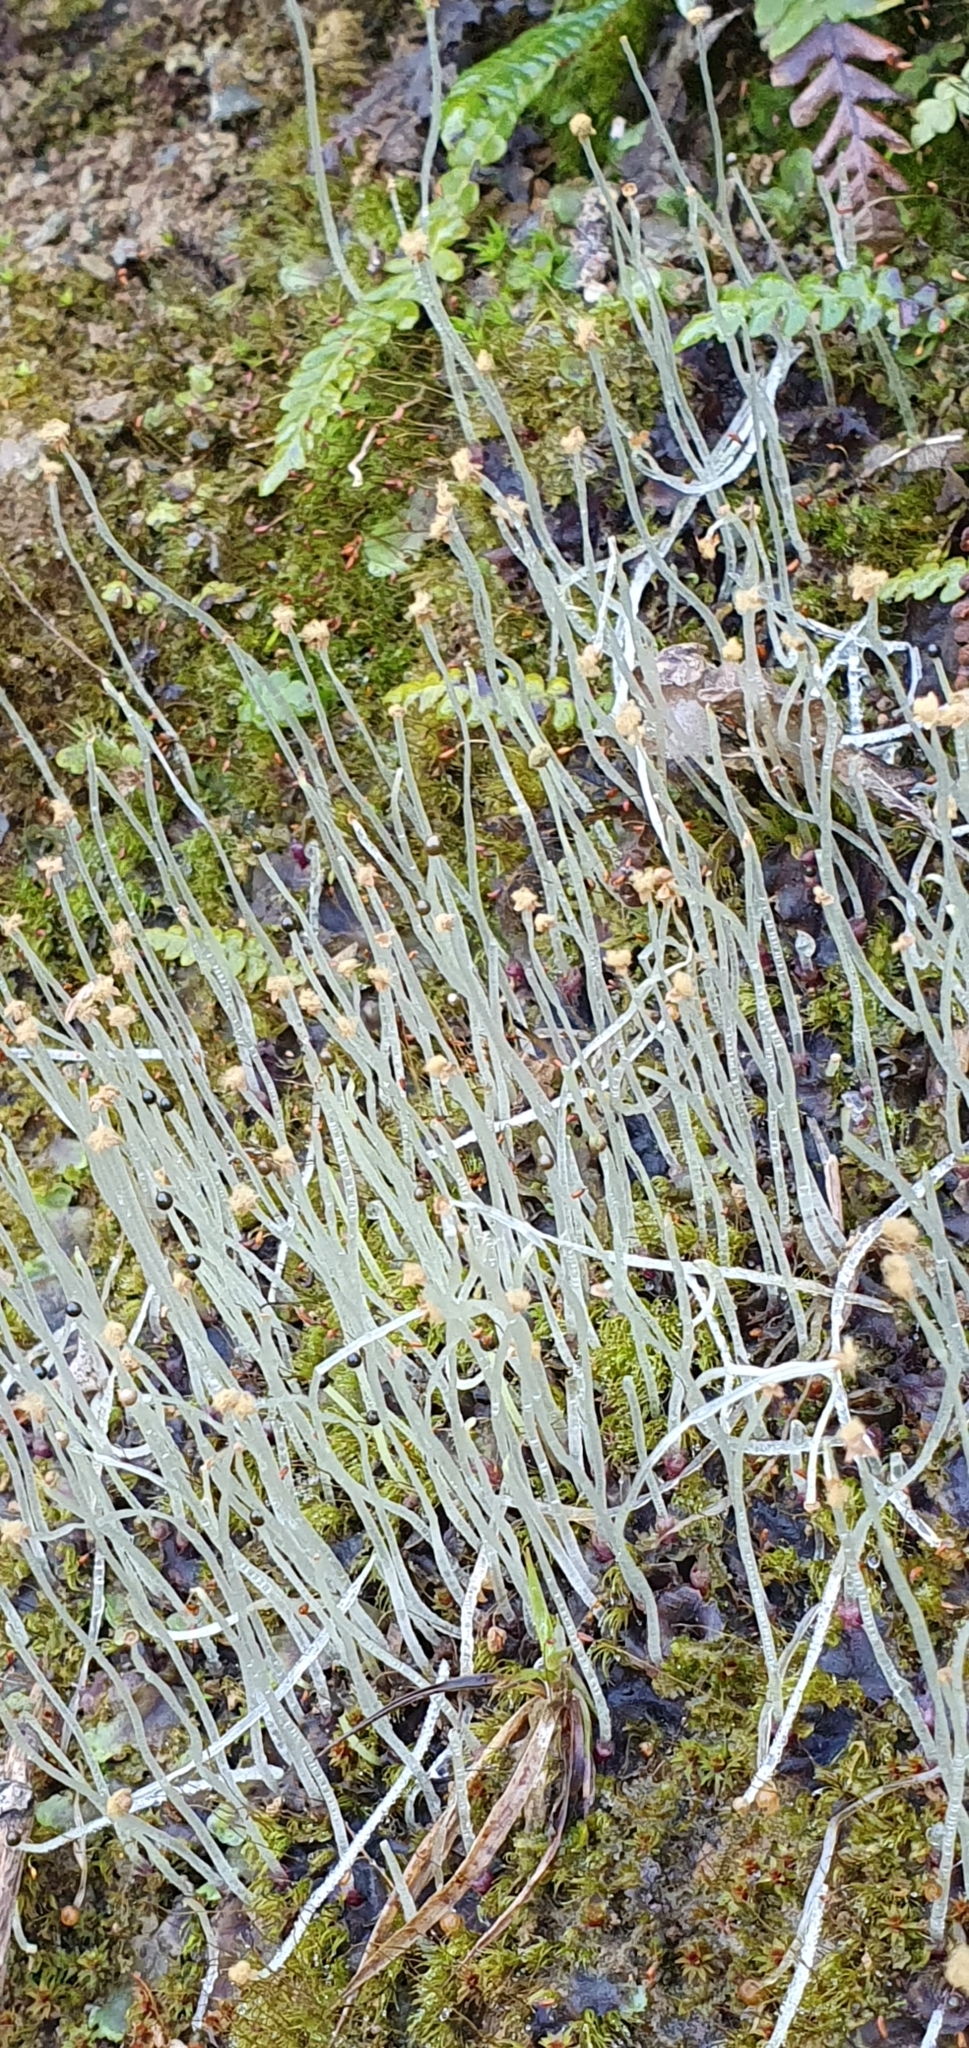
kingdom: Plantae
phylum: Marchantiophyta
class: Jungermanniopsida
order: Pelliales
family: Pelliaceae
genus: Pellia
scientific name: Pellia epiphylla
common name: Common pellia
